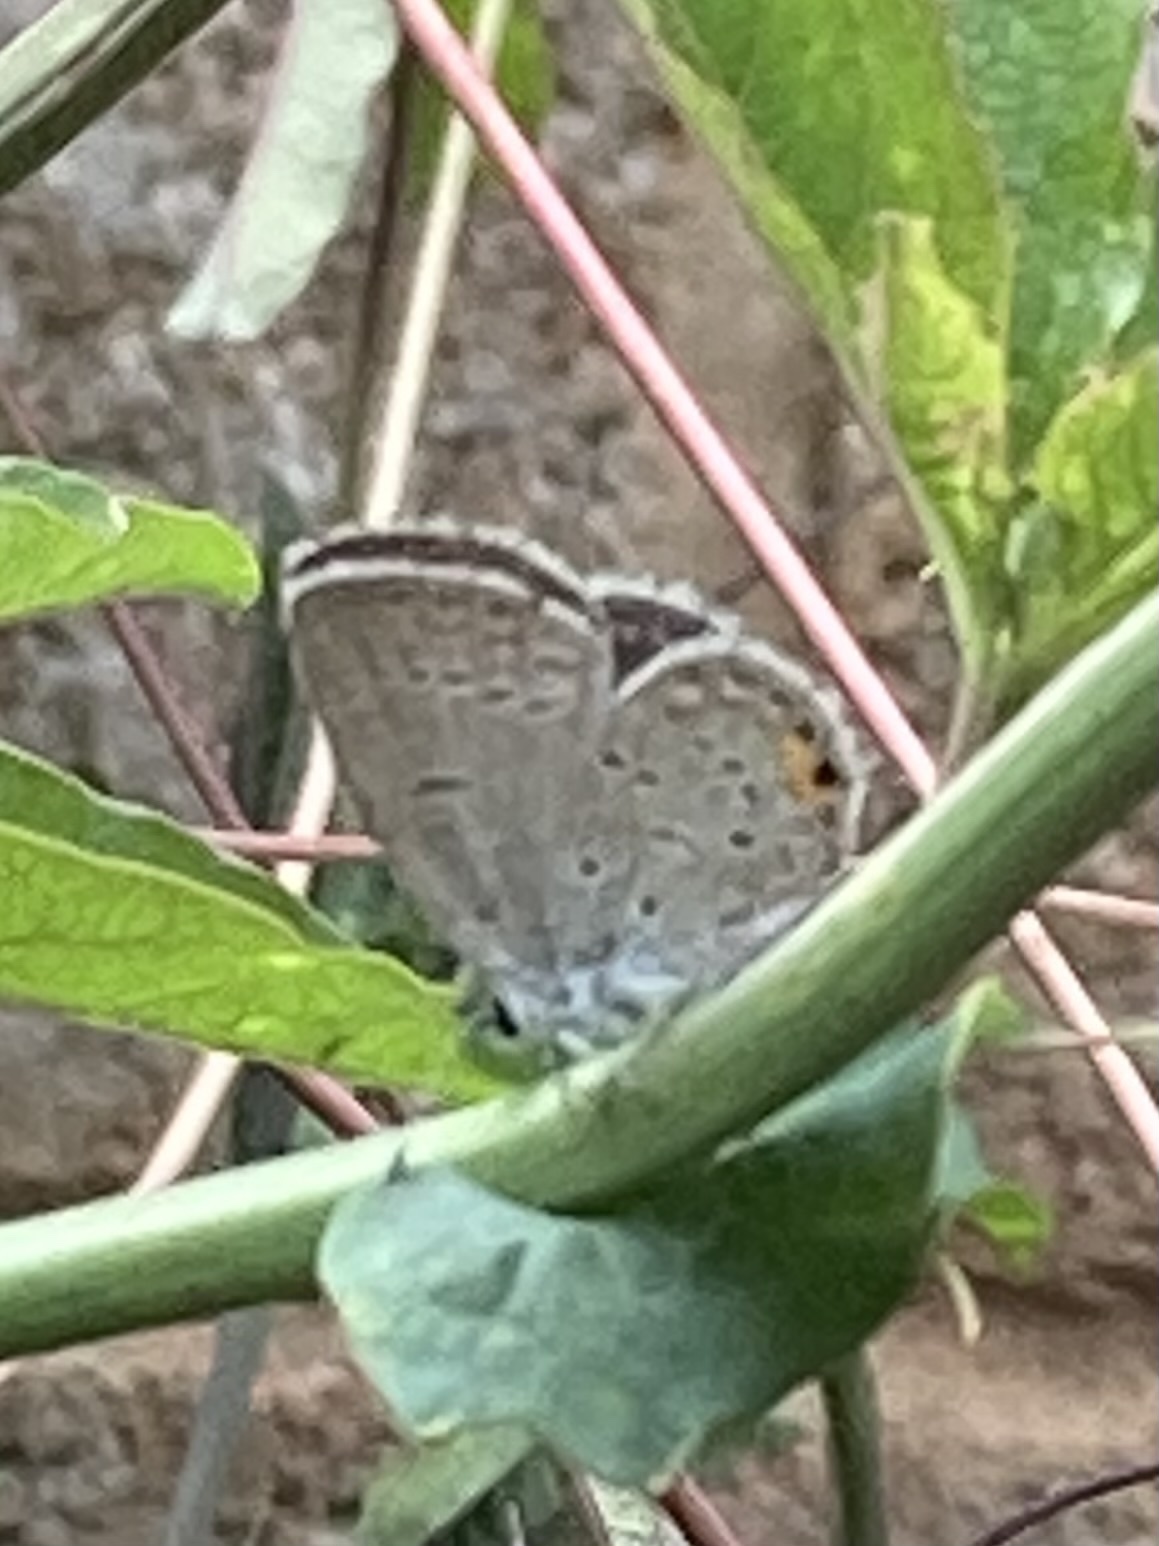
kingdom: Animalia
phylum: Arthropoda
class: Insecta
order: Lepidoptera
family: Lycaenidae
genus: Elkalyce
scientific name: Elkalyce comyntas
